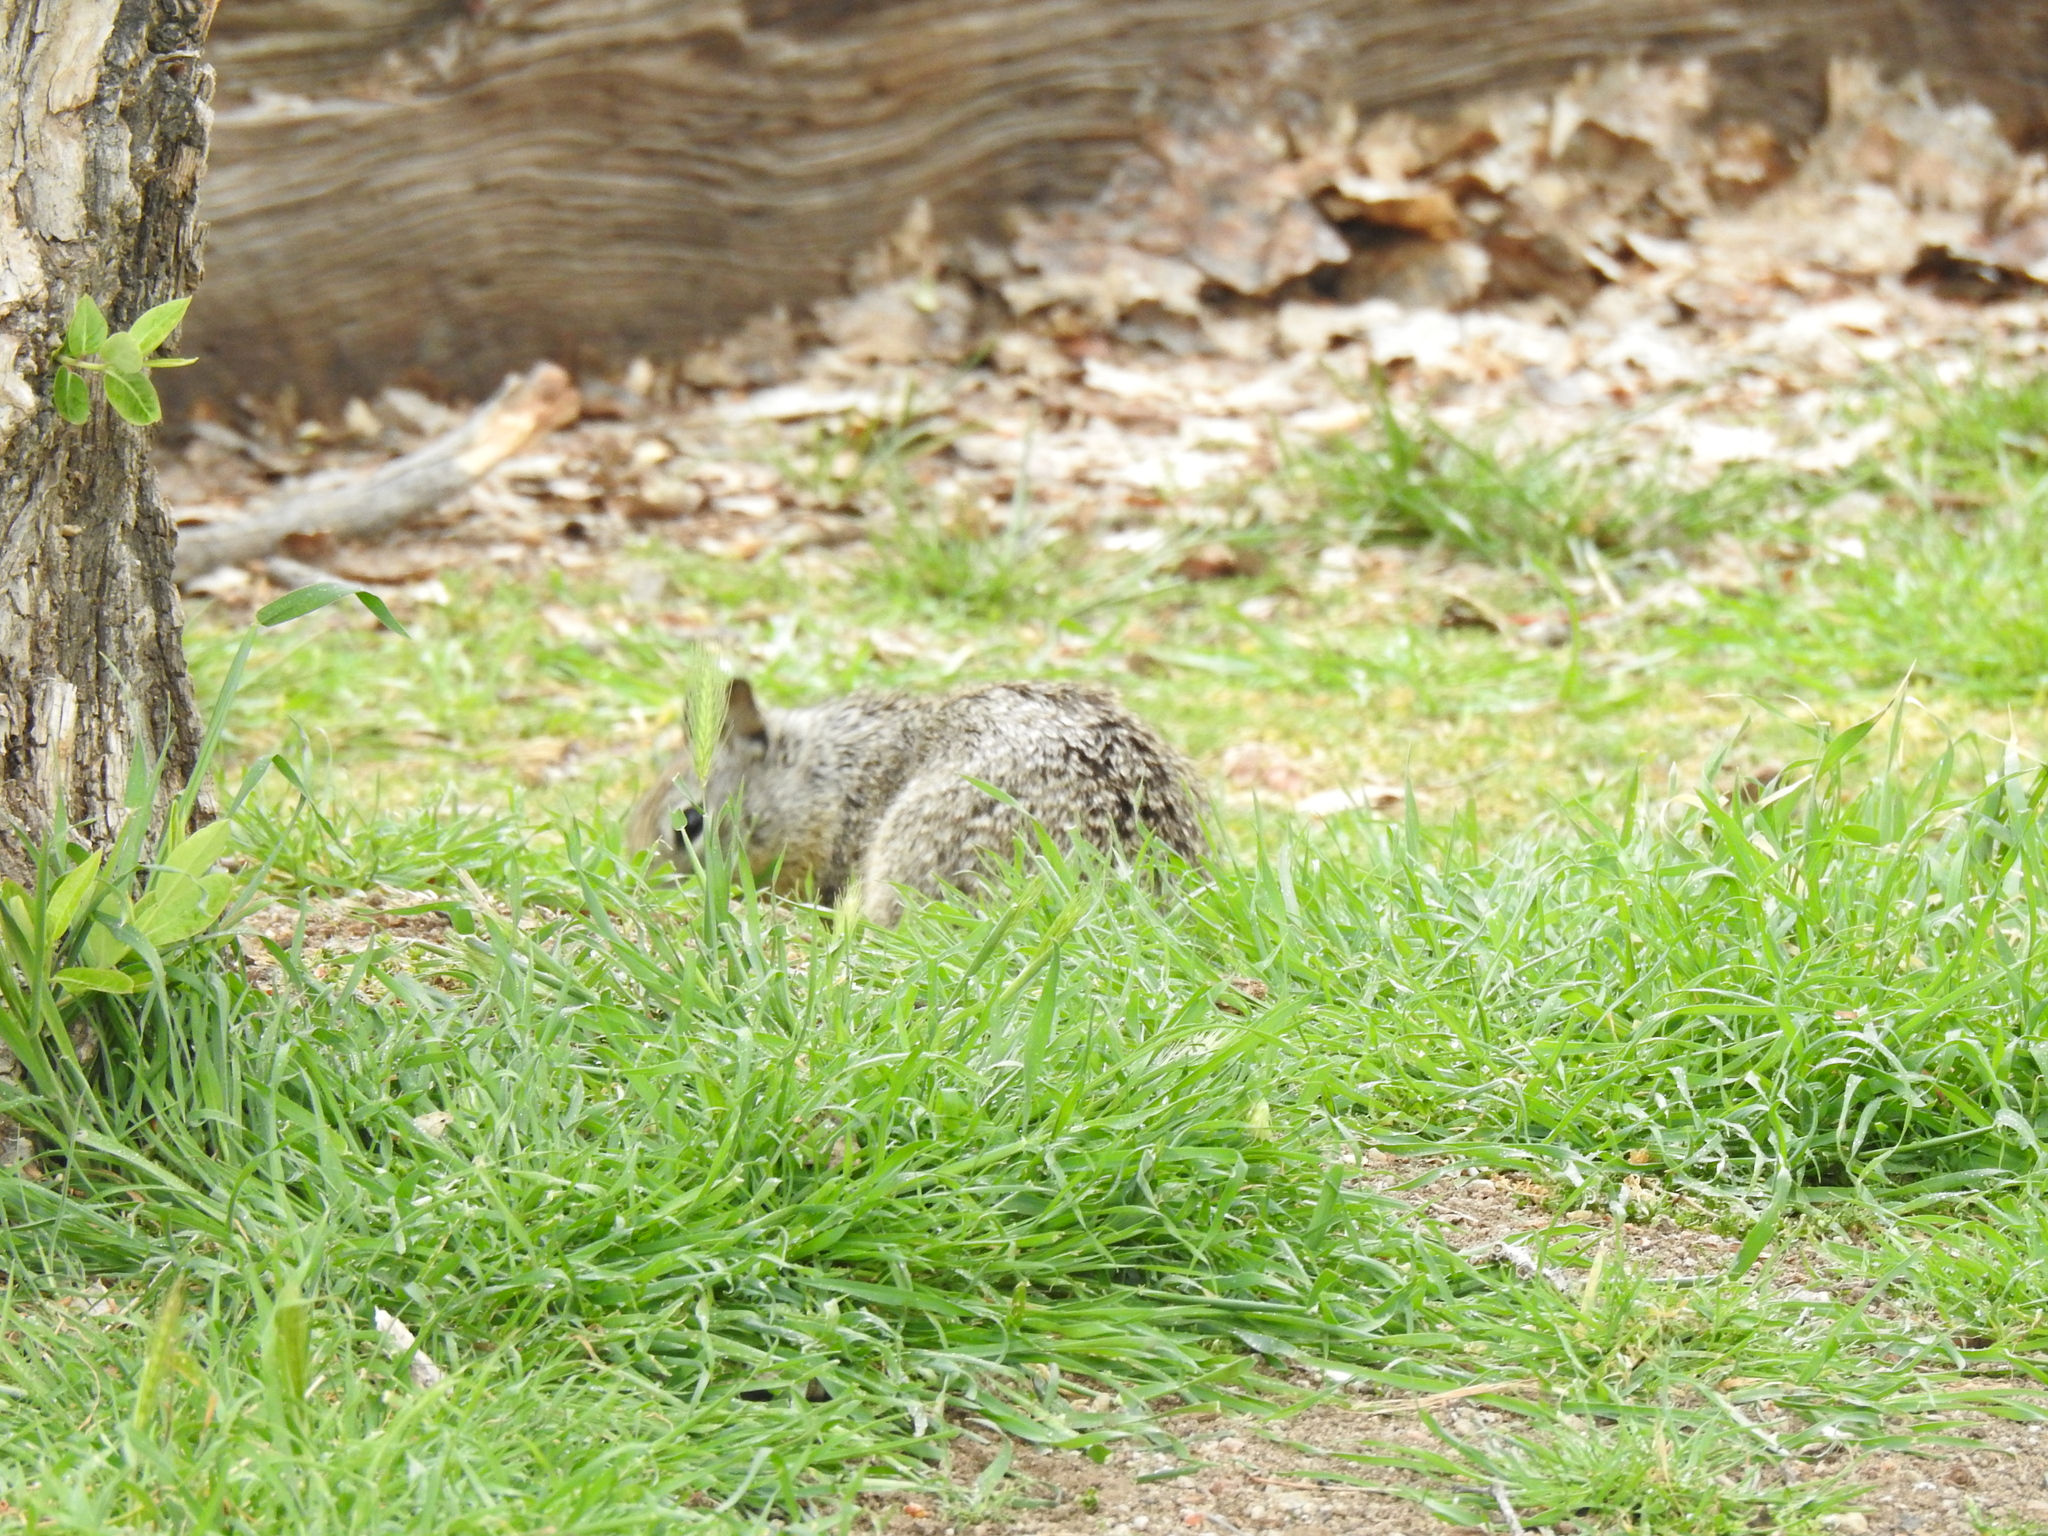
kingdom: Animalia
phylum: Chordata
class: Mammalia
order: Rodentia
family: Sciuridae
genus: Otospermophilus
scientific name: Otospermophilus beecheyi
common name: California ground squirrel
